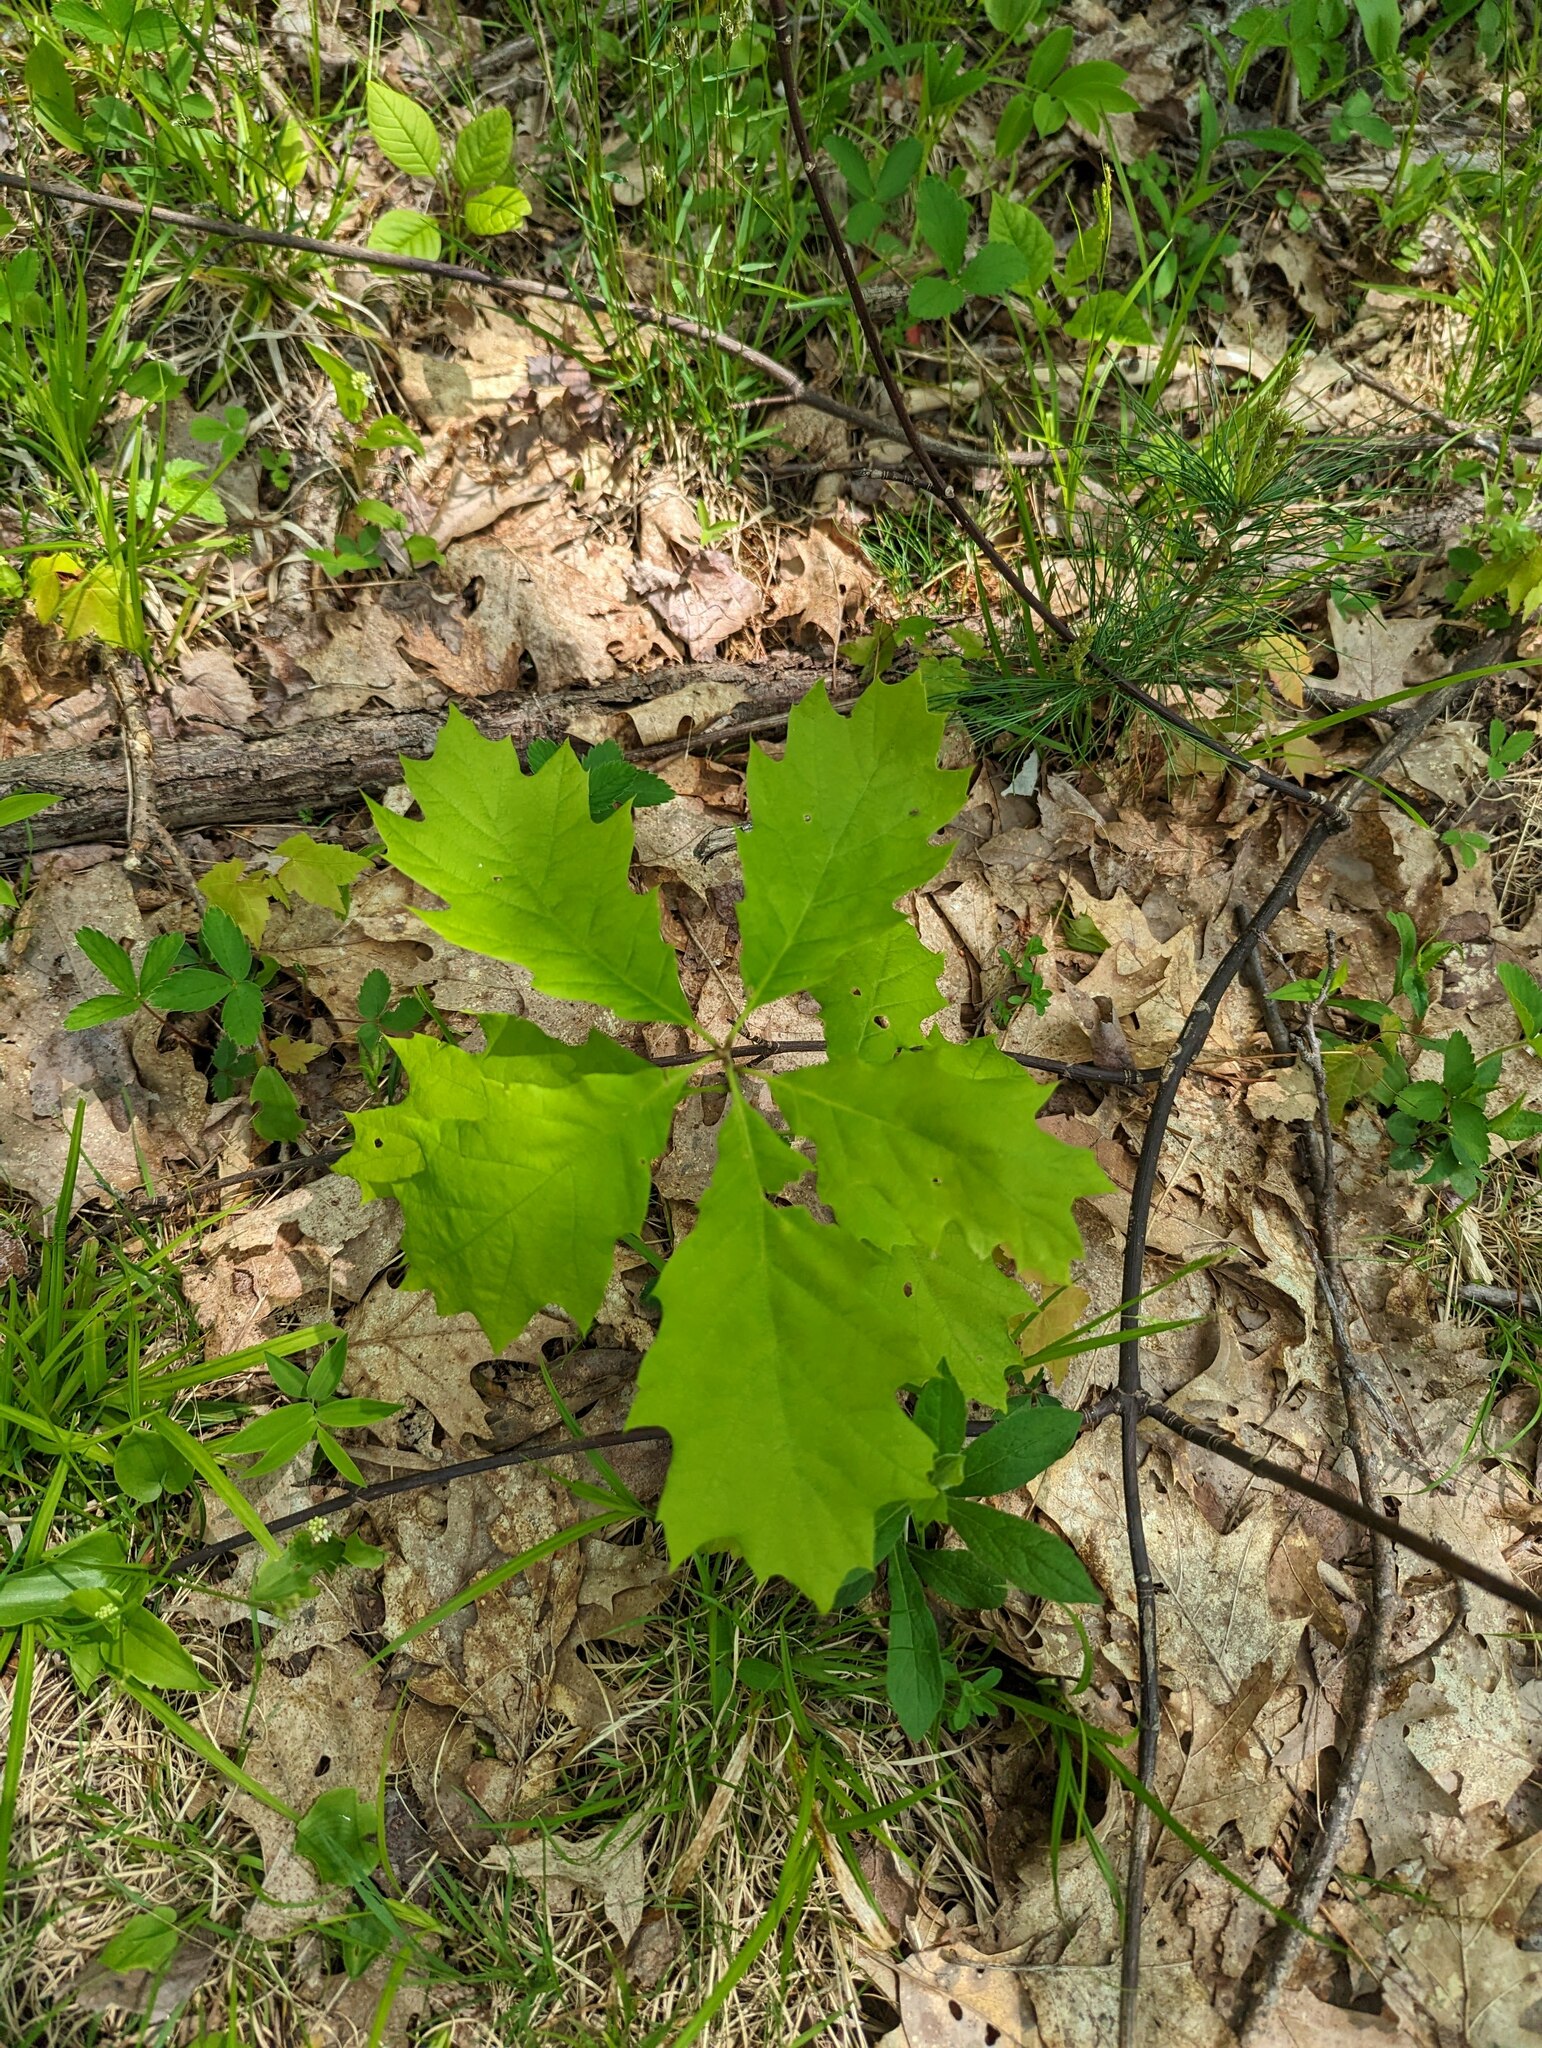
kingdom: Plantae
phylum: Tracheophyta
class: Magnoliopsida
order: Fagales
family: Fagaceae
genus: Quercus
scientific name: Quercus rubra
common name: Red oak
